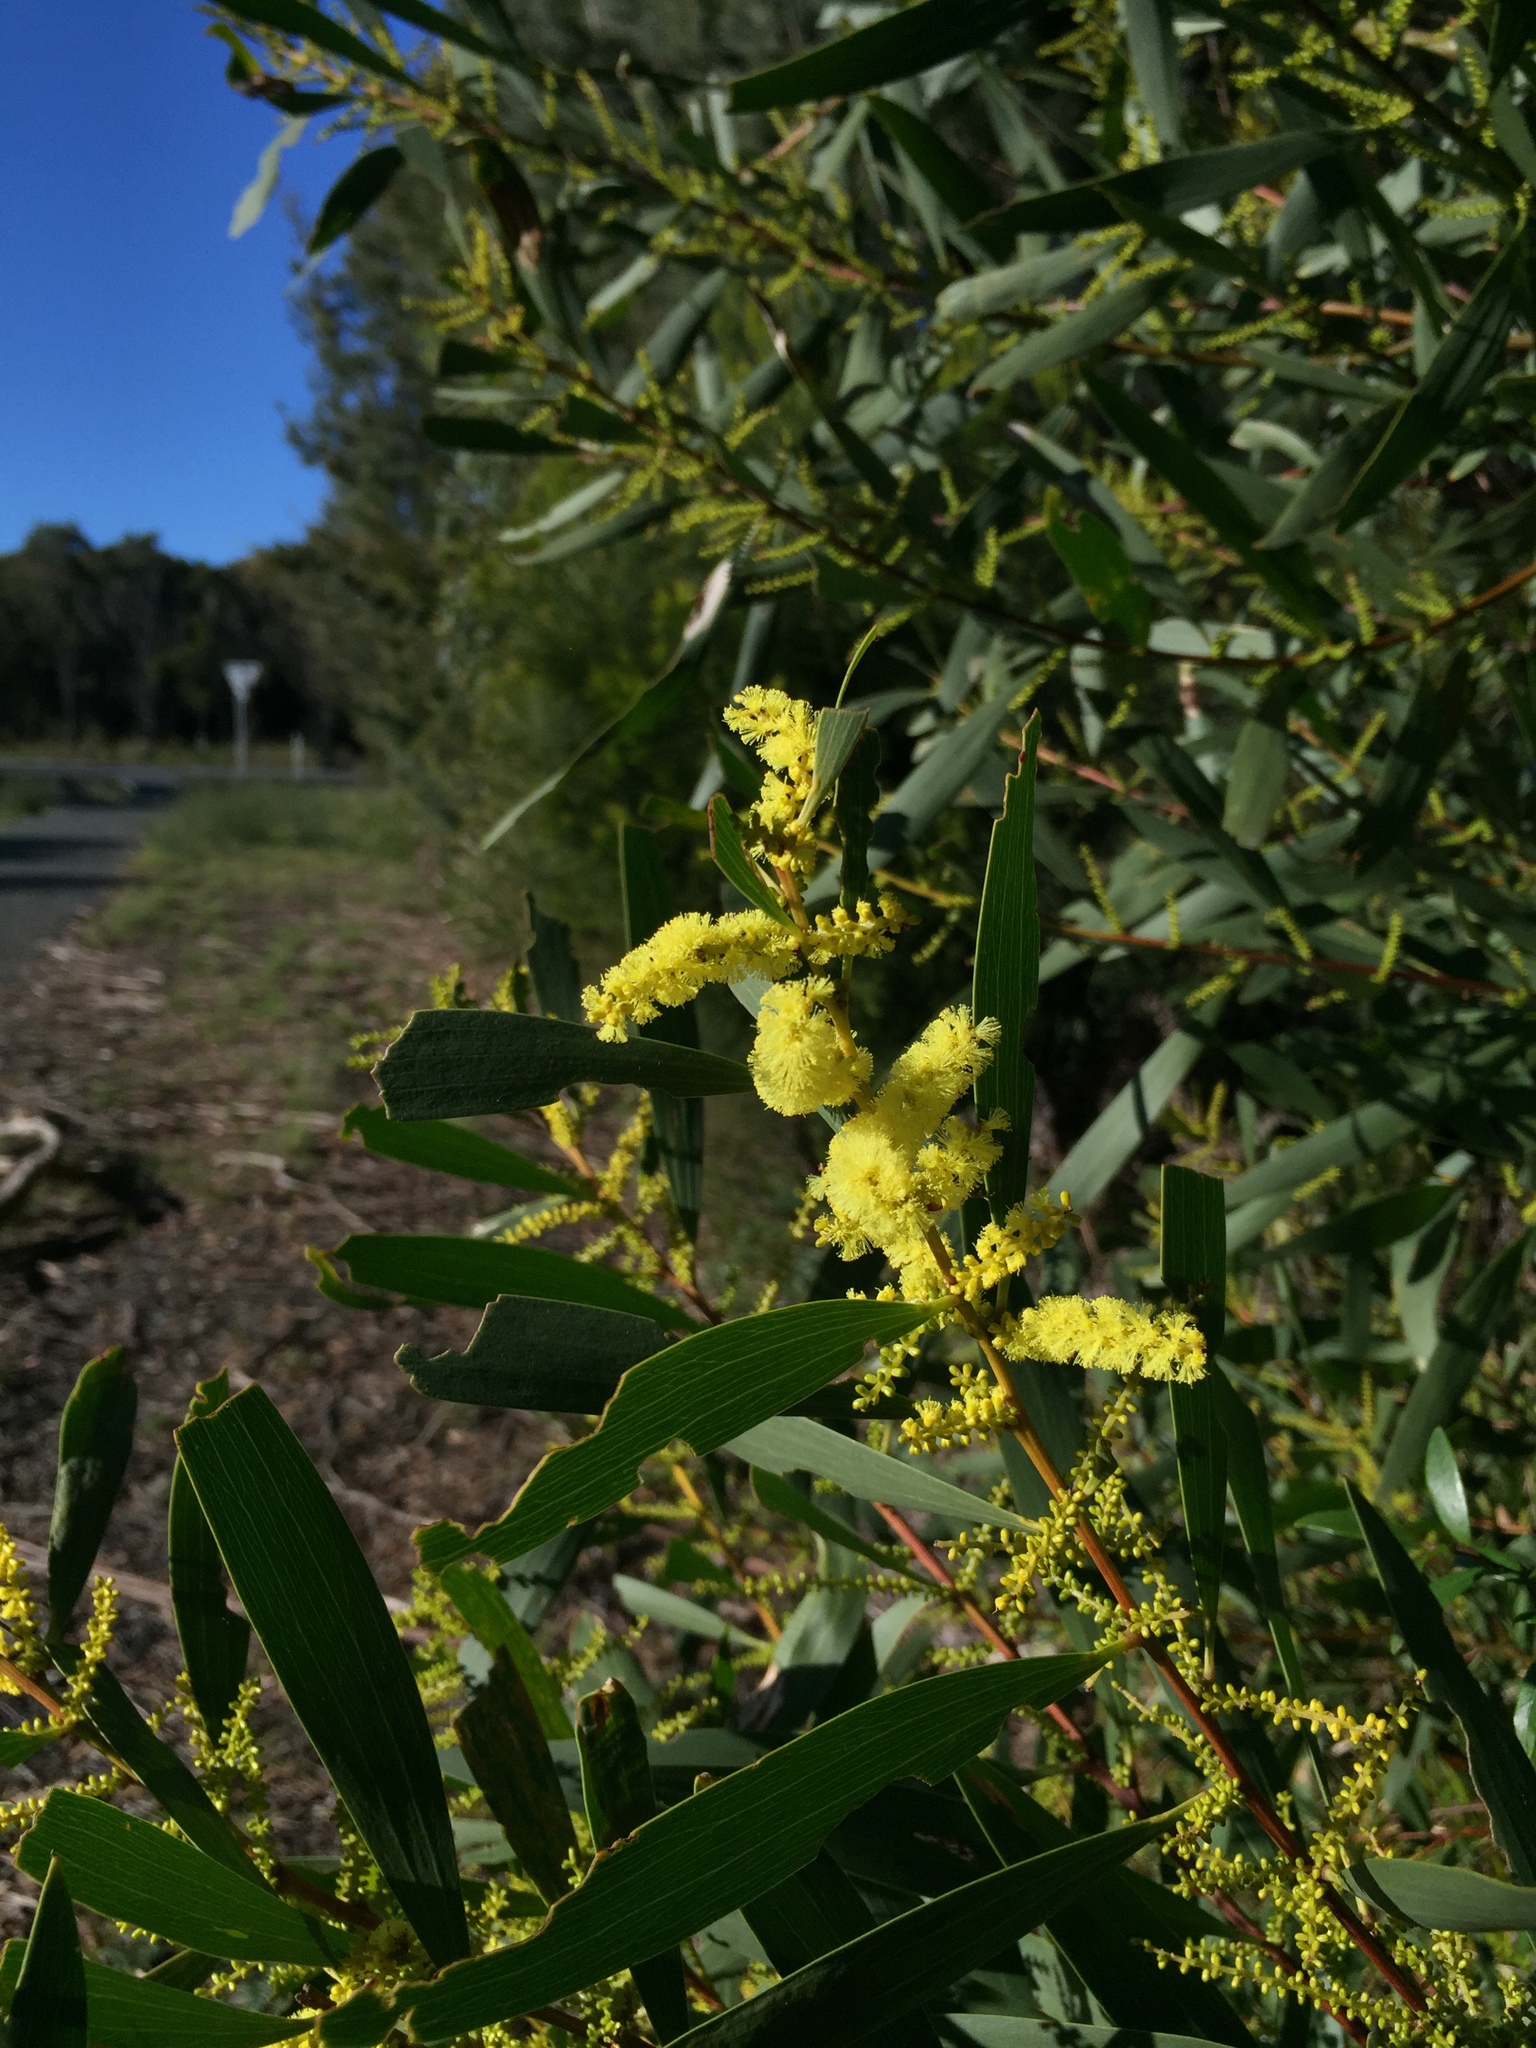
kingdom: Plantae
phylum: Tracheophyta
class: Magnoliopsida
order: Fabales
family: Fabaceae
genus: Acacia
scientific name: Acacia longifolia
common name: Sydney golden wattle
